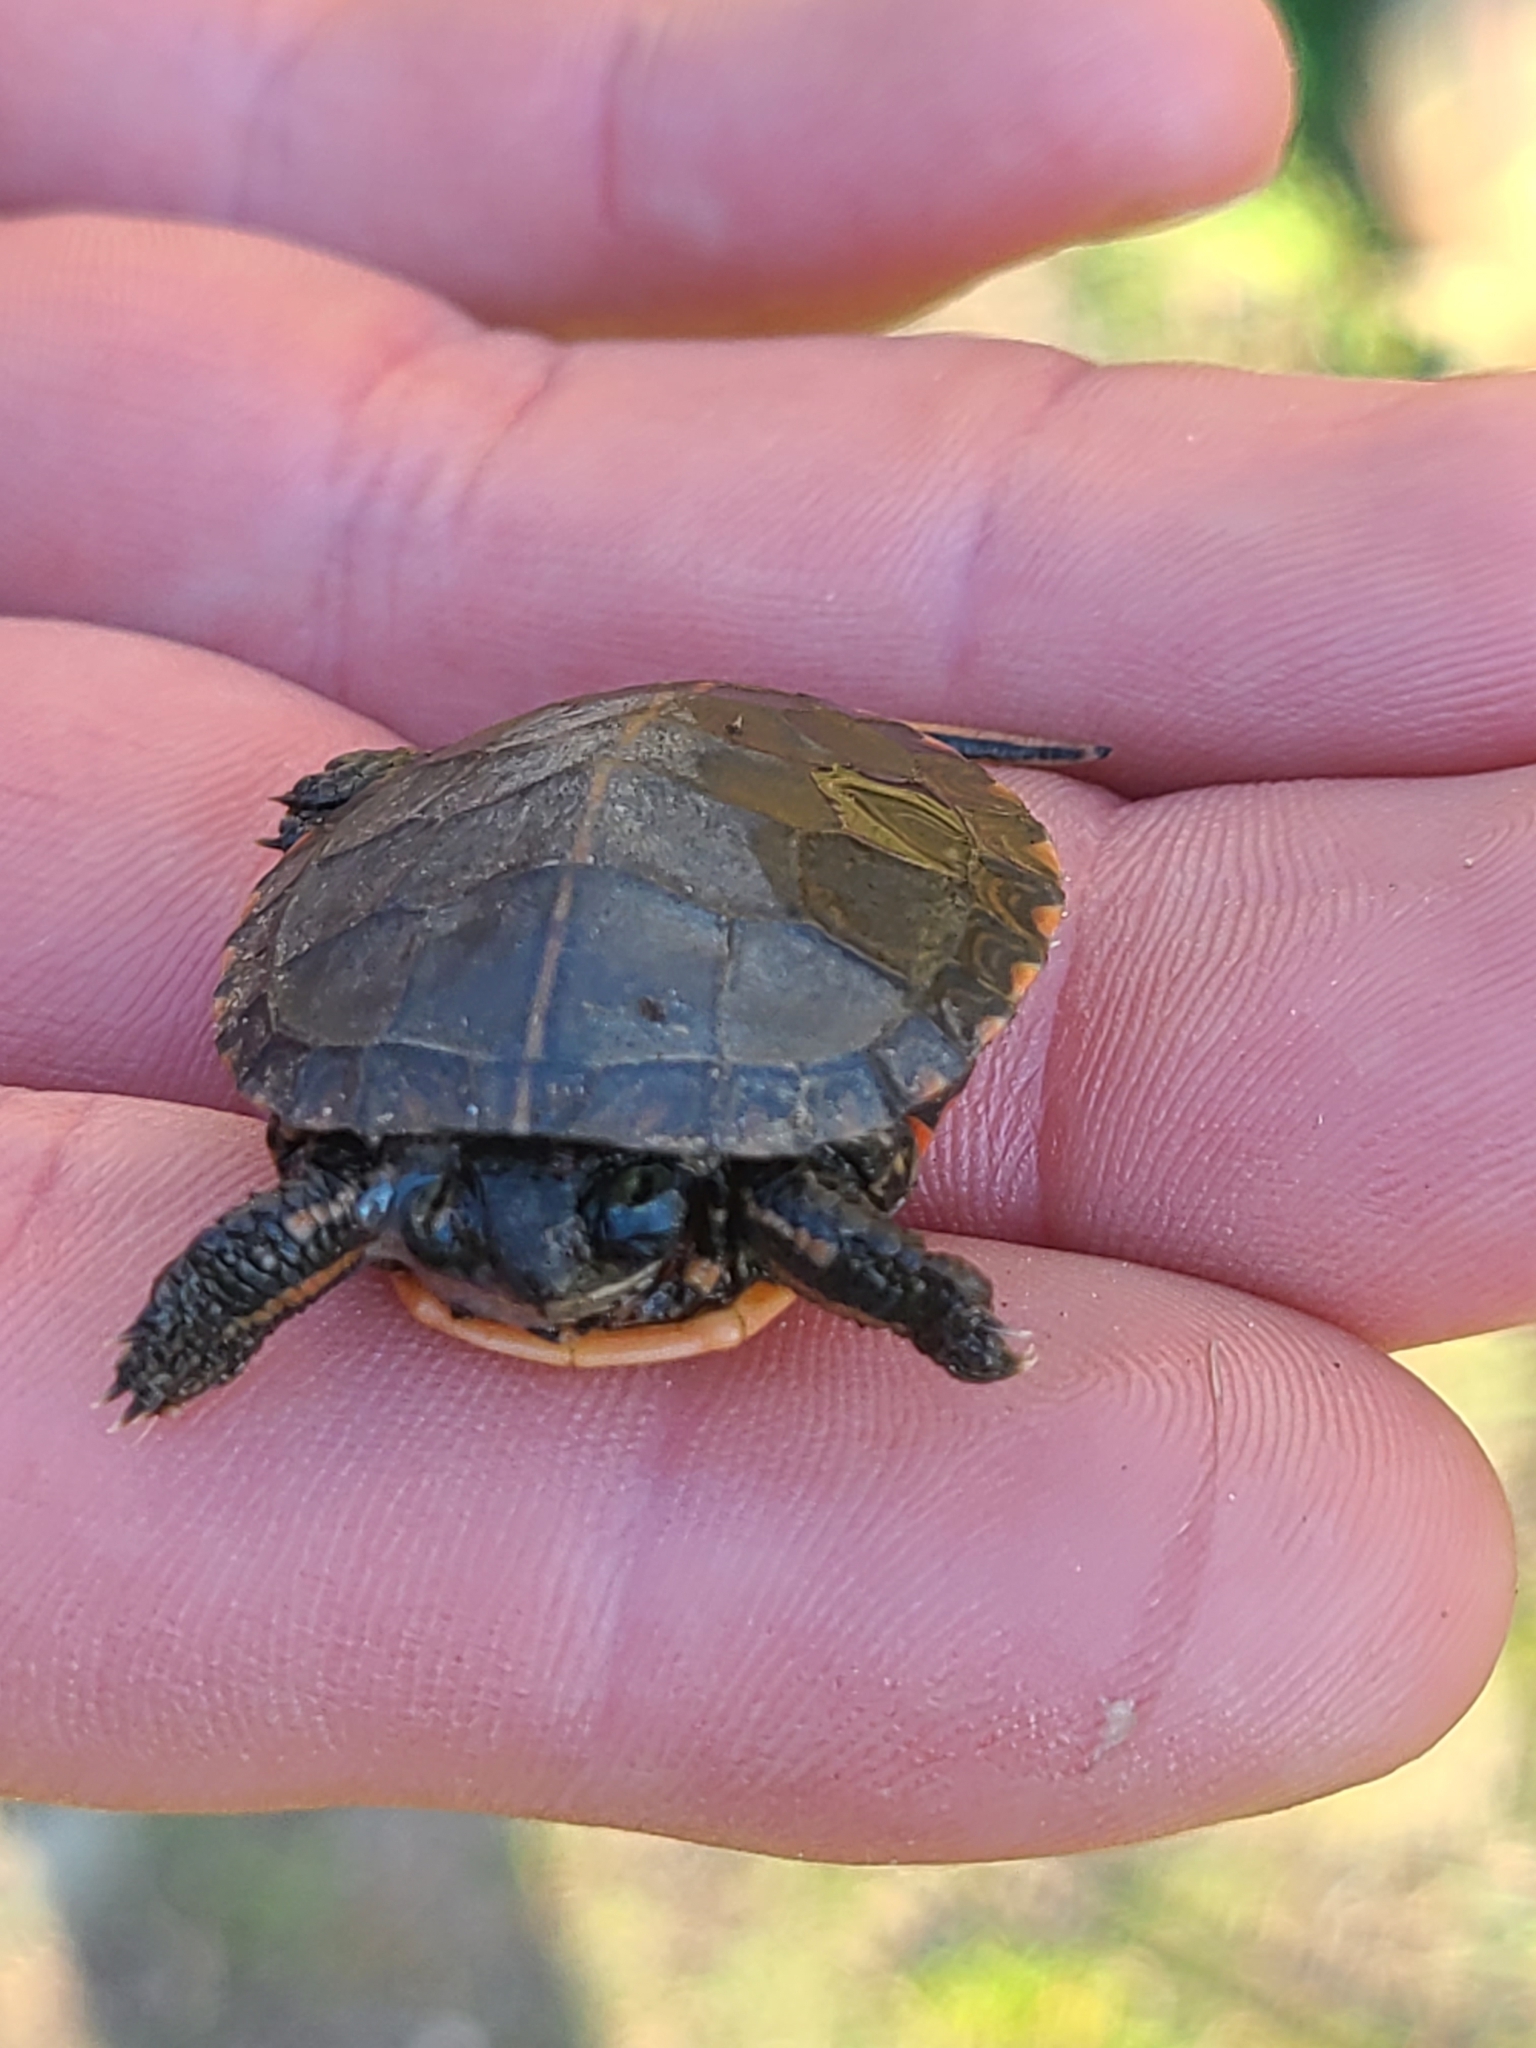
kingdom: Animalia
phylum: Chordata
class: Testudines
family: Emydidae
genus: Chrysemys
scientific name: Chrysemys picta
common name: Painted turtle
